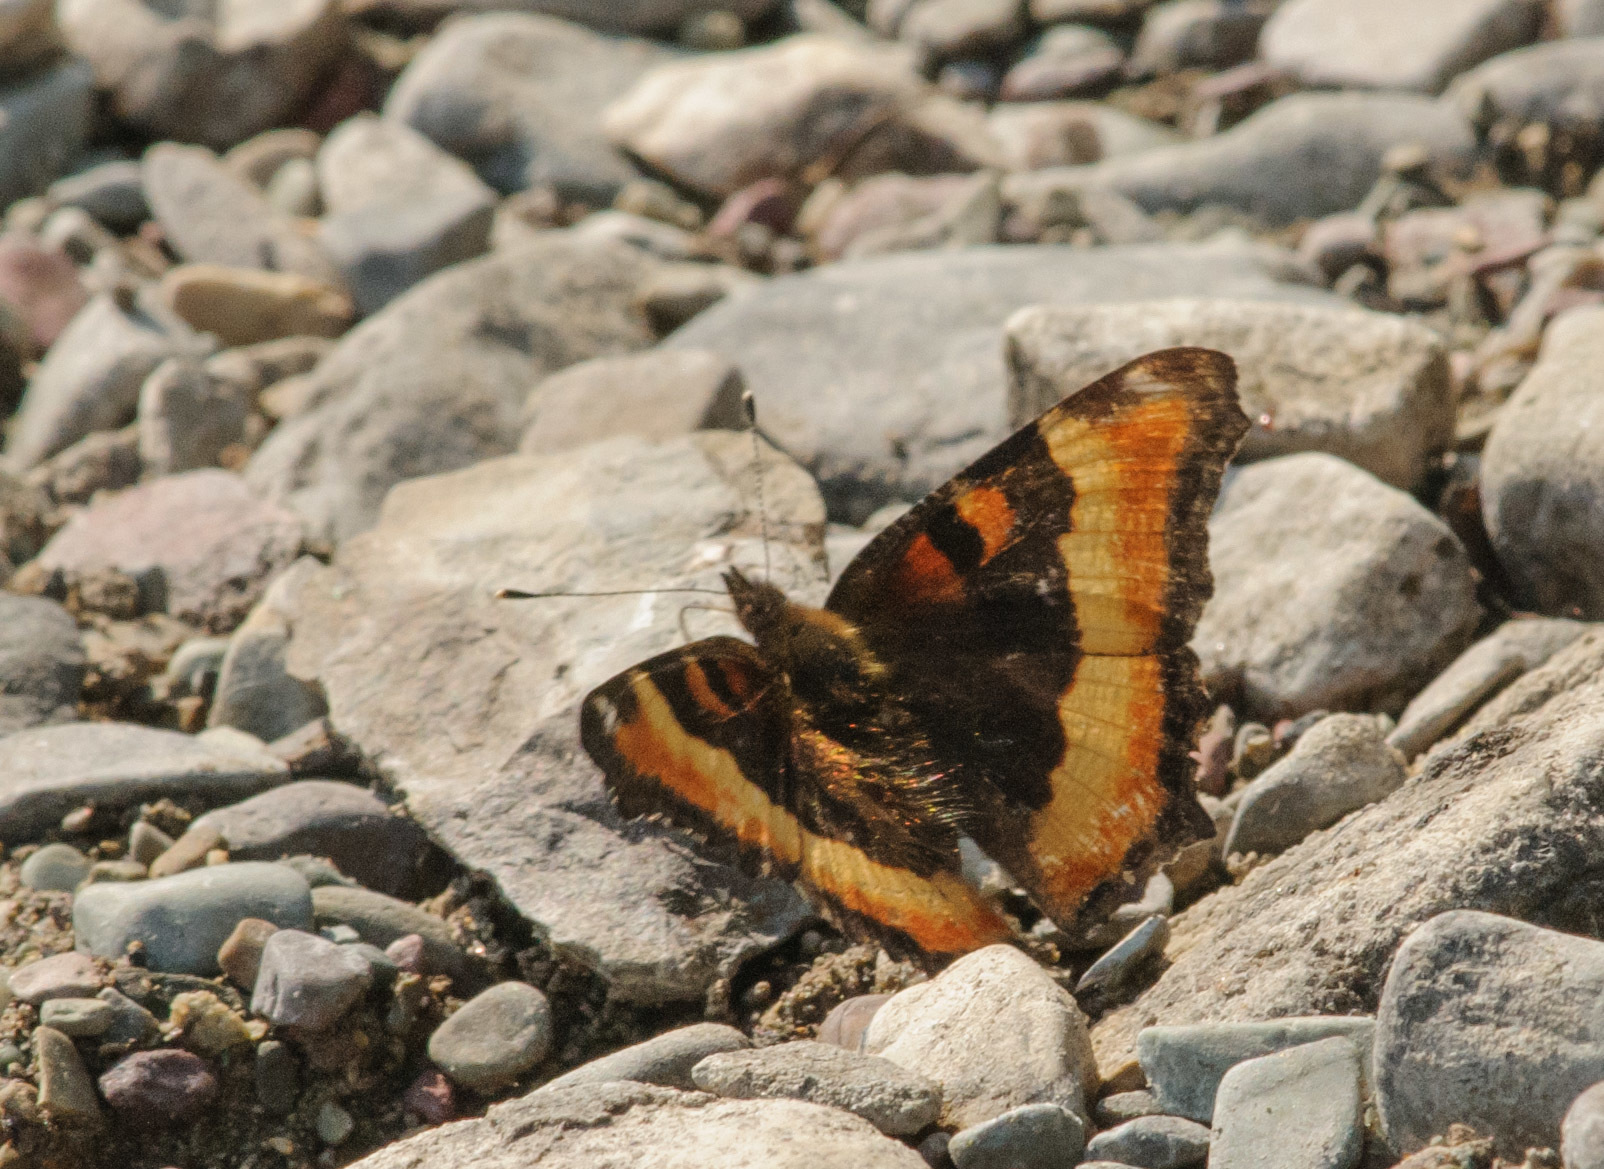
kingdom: Animalia
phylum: Arthropoda
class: Insecta
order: Lepidoptera
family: Nymphalidae
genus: Aglais
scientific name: Aglais milberti
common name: Milbert's tortoiseshell
